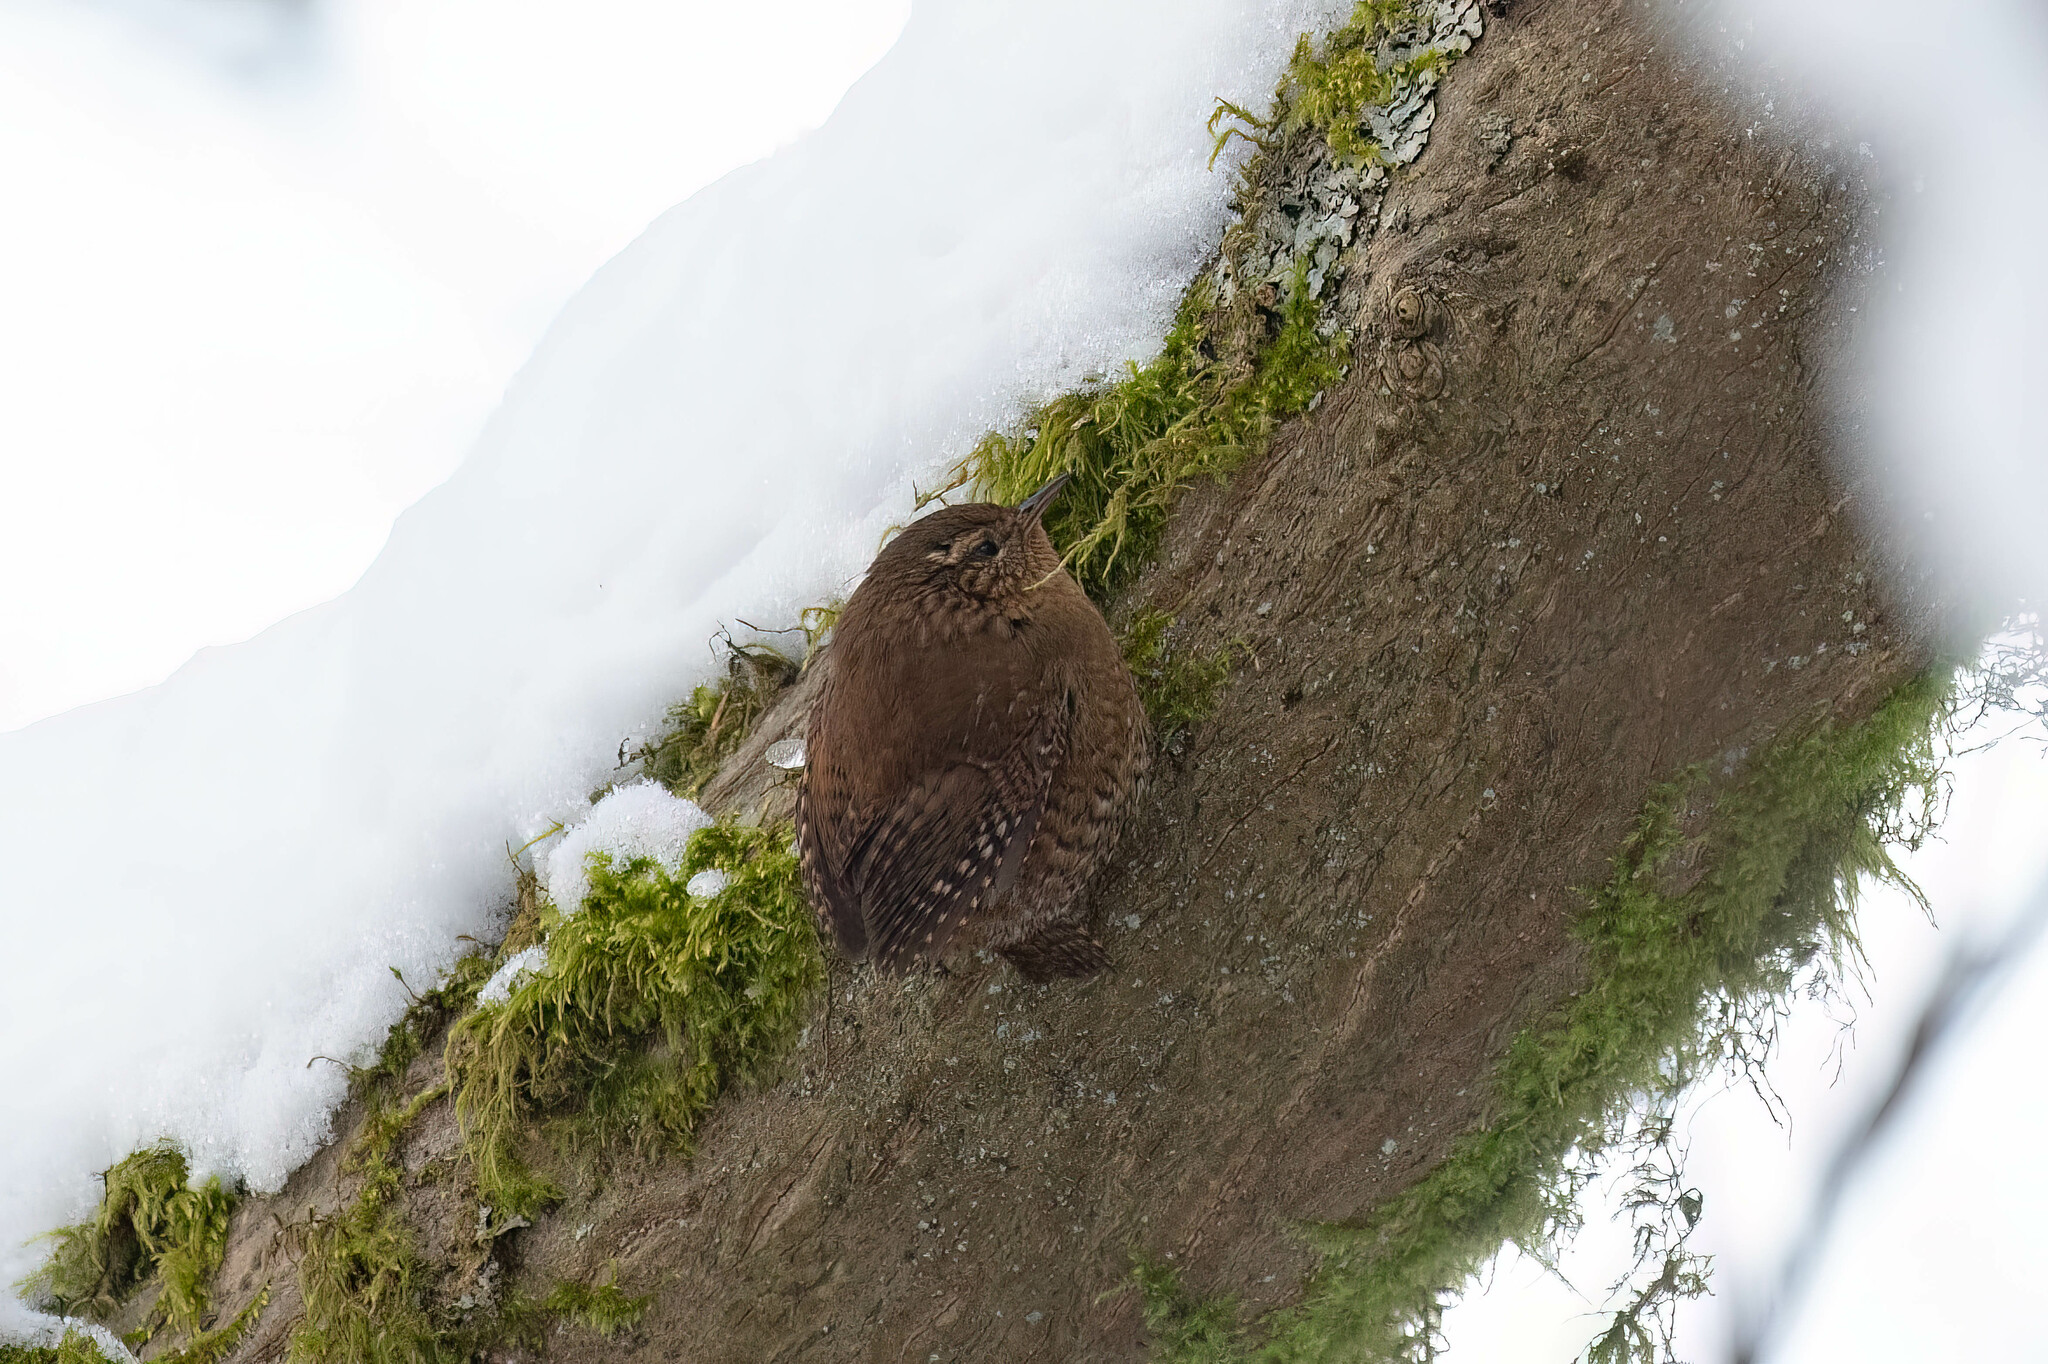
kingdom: Animalia
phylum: Chordata
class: Aves
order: Passeriformes
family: Troglodytidae
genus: Troglodytes
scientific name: Troglodytes pacificus
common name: Pacific wren
